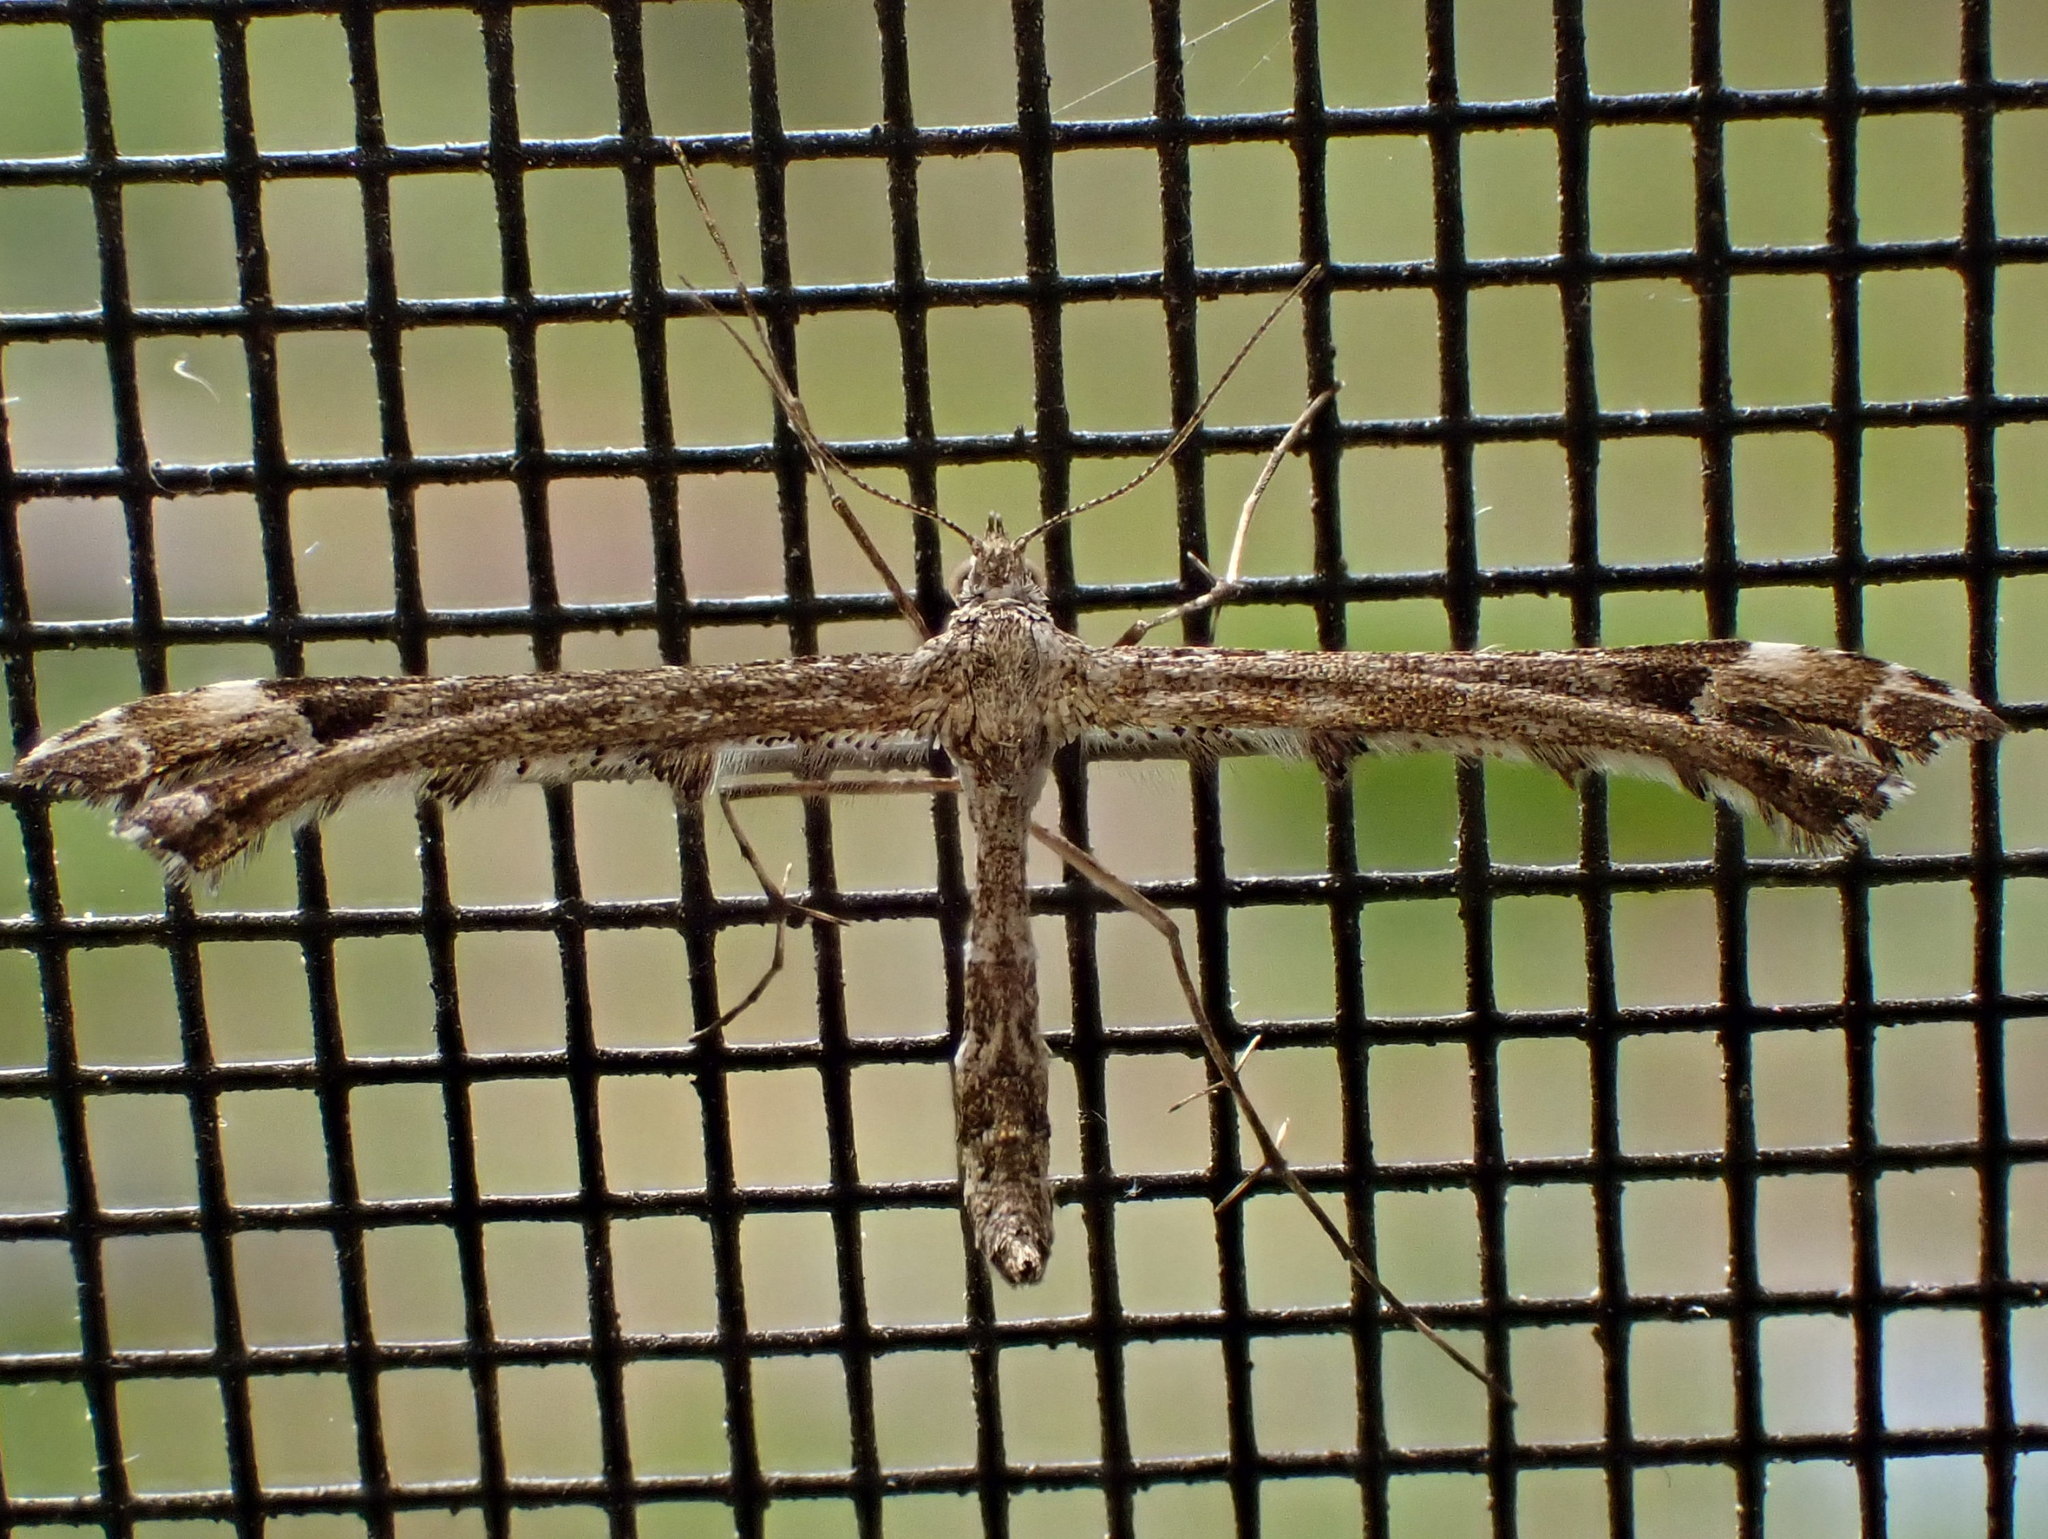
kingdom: Animalia
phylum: Arthropoda
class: Insecta
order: Lepidoptera
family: Pterophoridae
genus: Amblyptilia
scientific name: Amblyptilia pica
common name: Geranium plume moth
